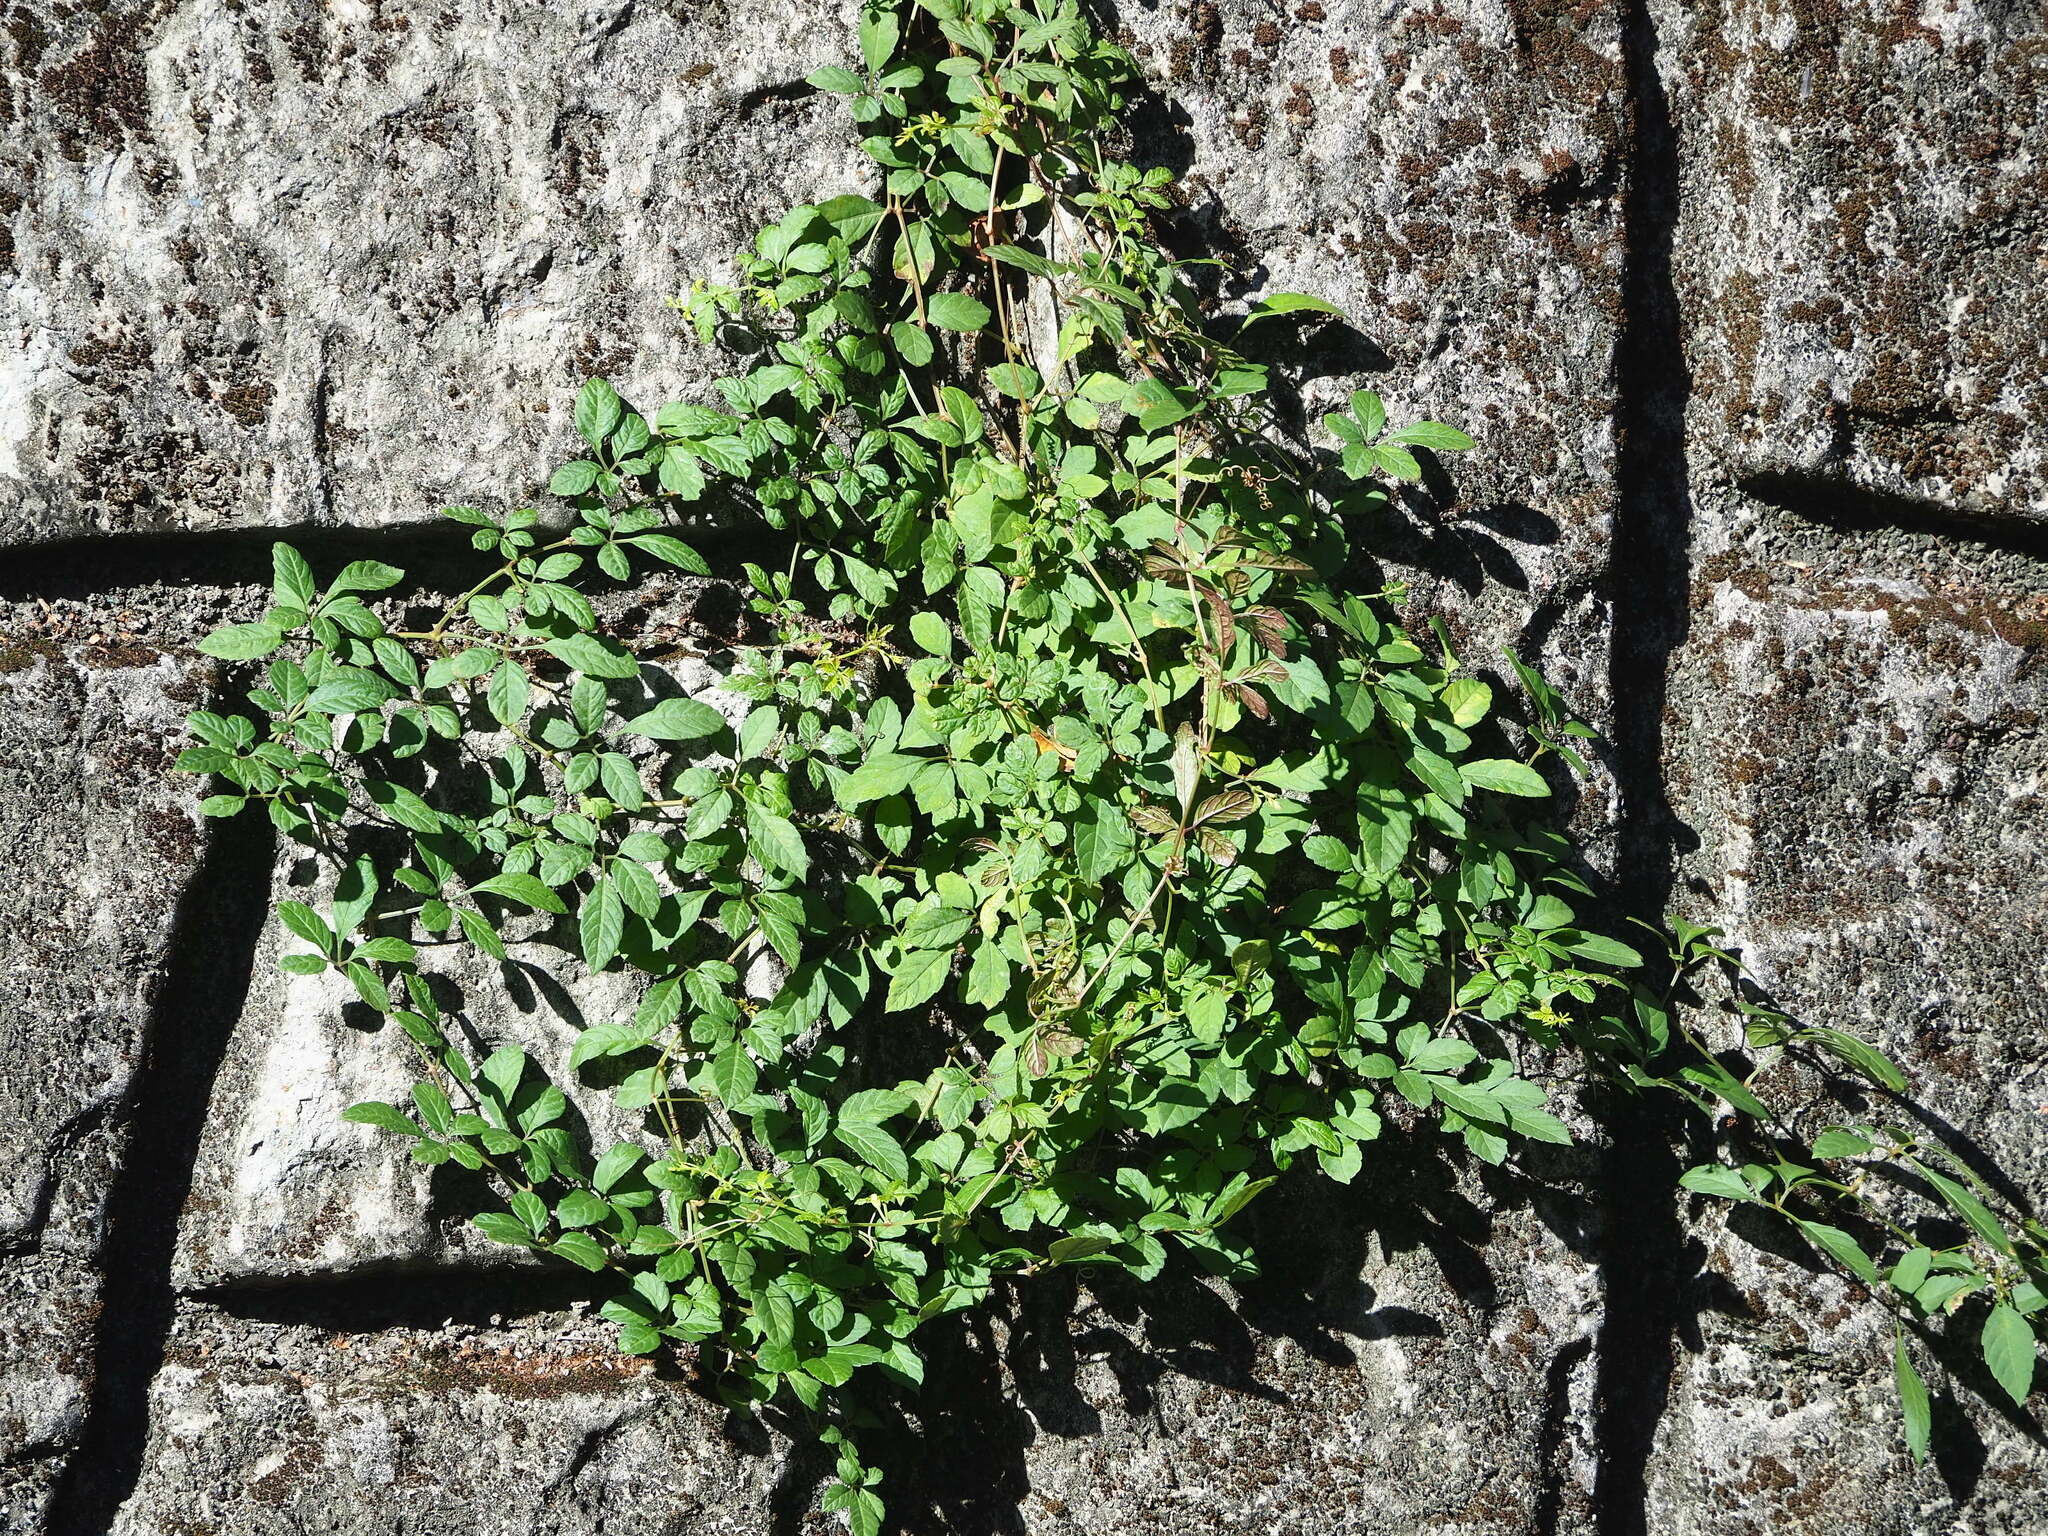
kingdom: Plantae
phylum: Tracheophyta
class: Magnoliopsida
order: Vitales
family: Vitaceae
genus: Causonis
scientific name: Causonis japonica
